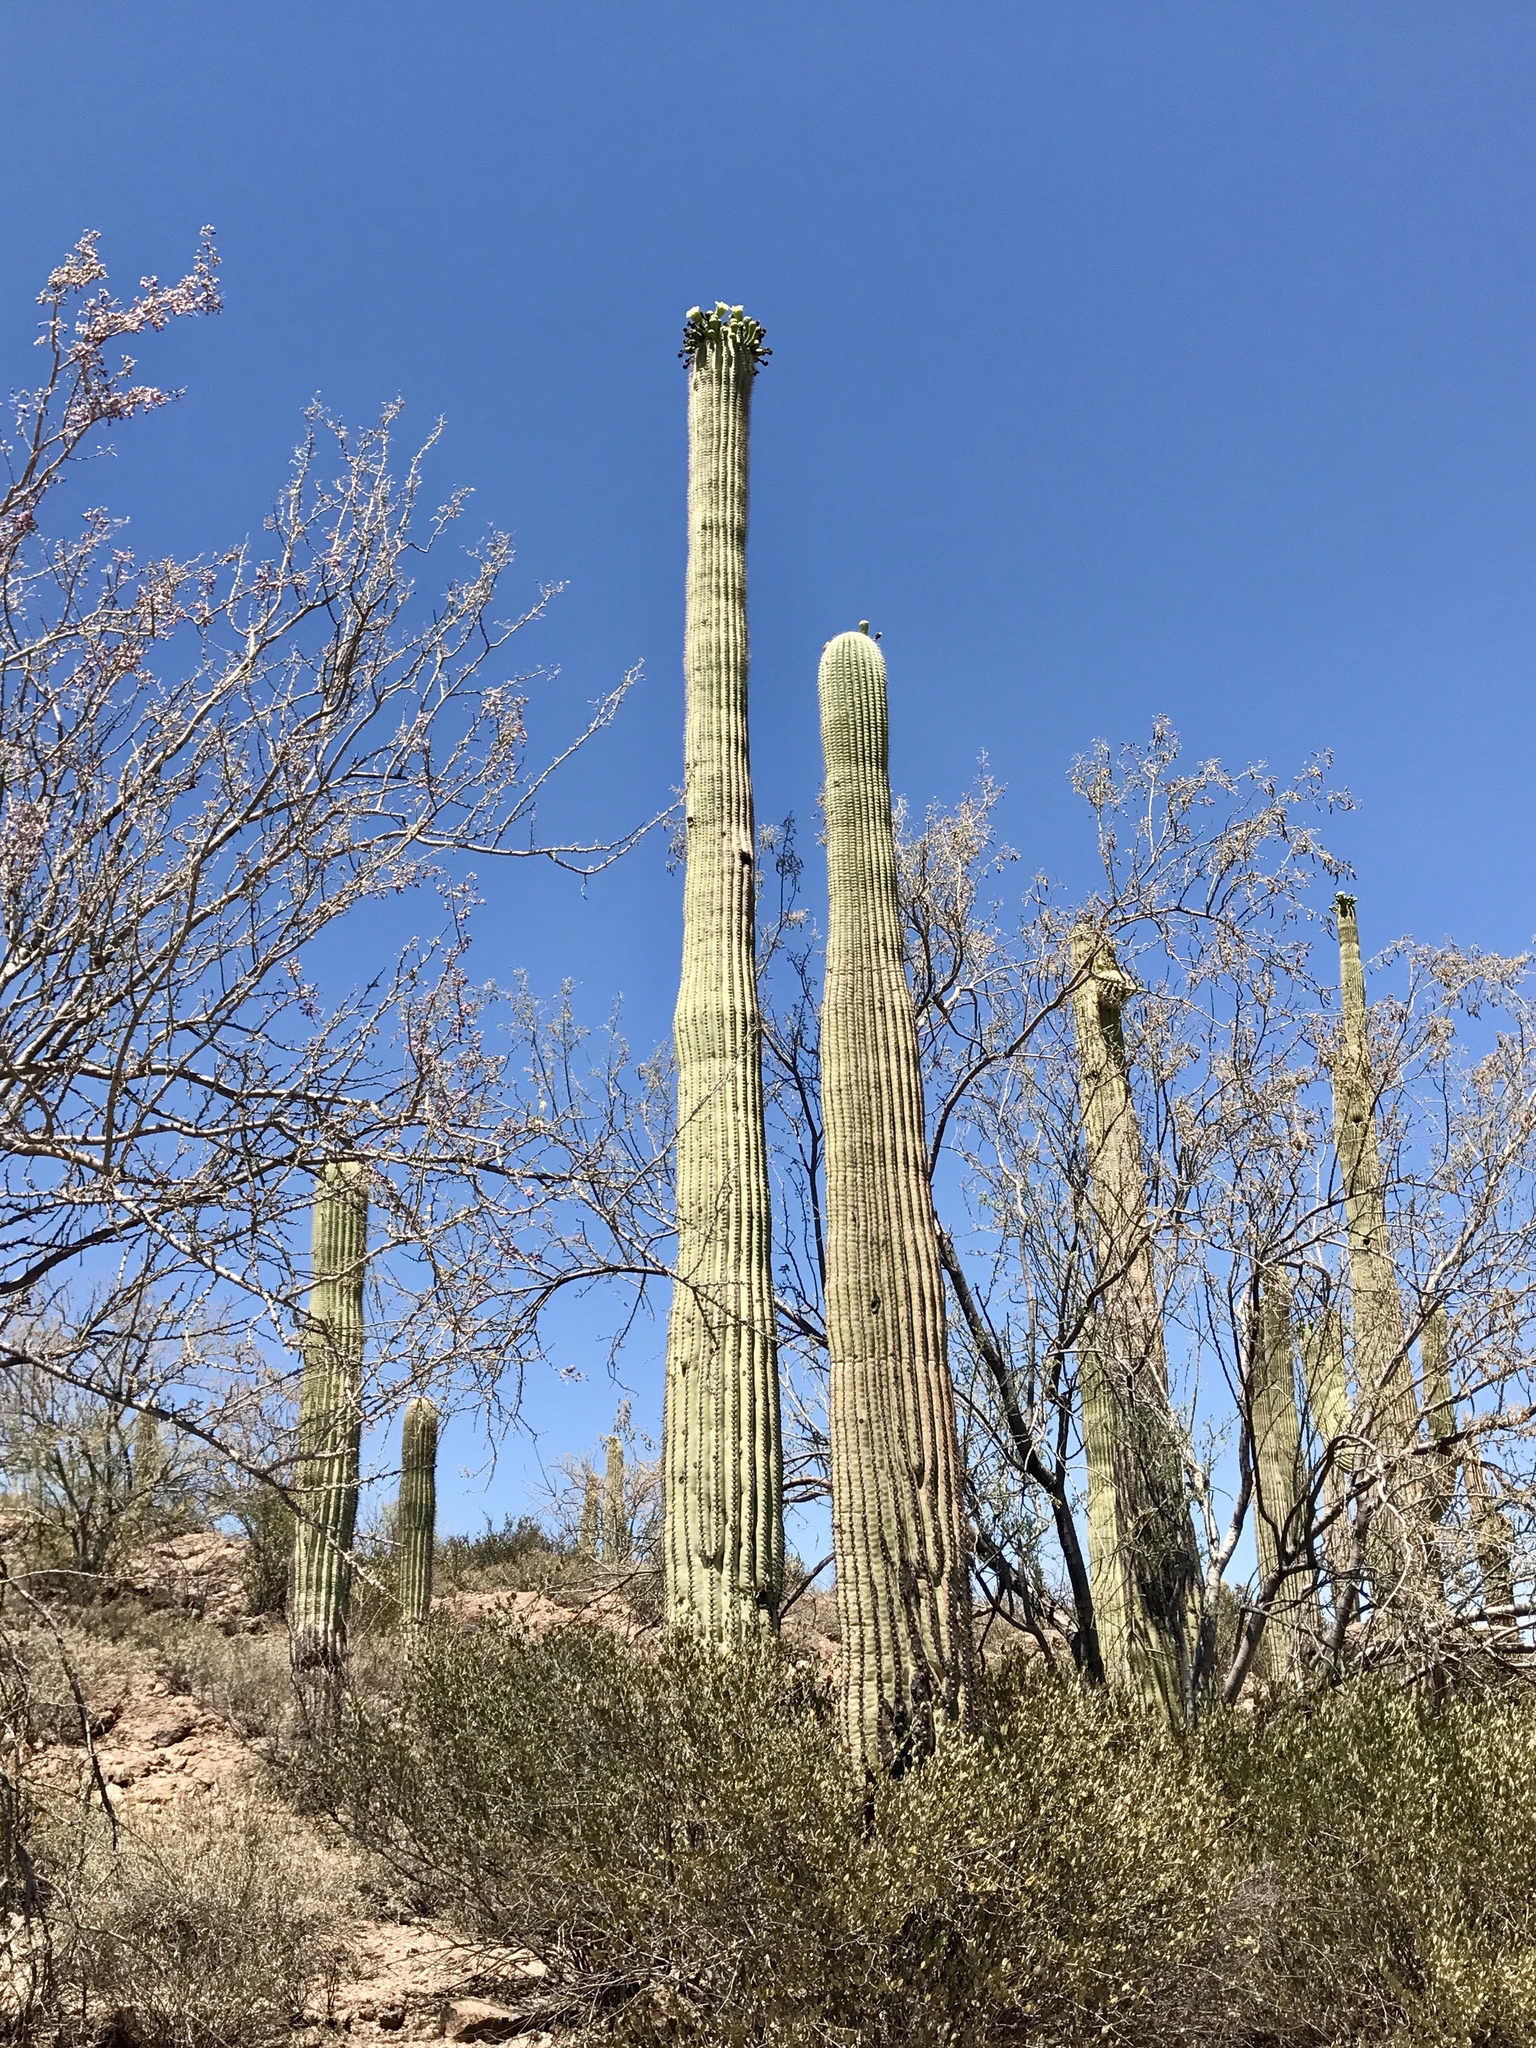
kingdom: Plantae
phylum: Tracheophyta
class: Magnoliopsida
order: Fabales
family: Fabaceae
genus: Olneya
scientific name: Olneya tesota
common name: Desert ironwood
